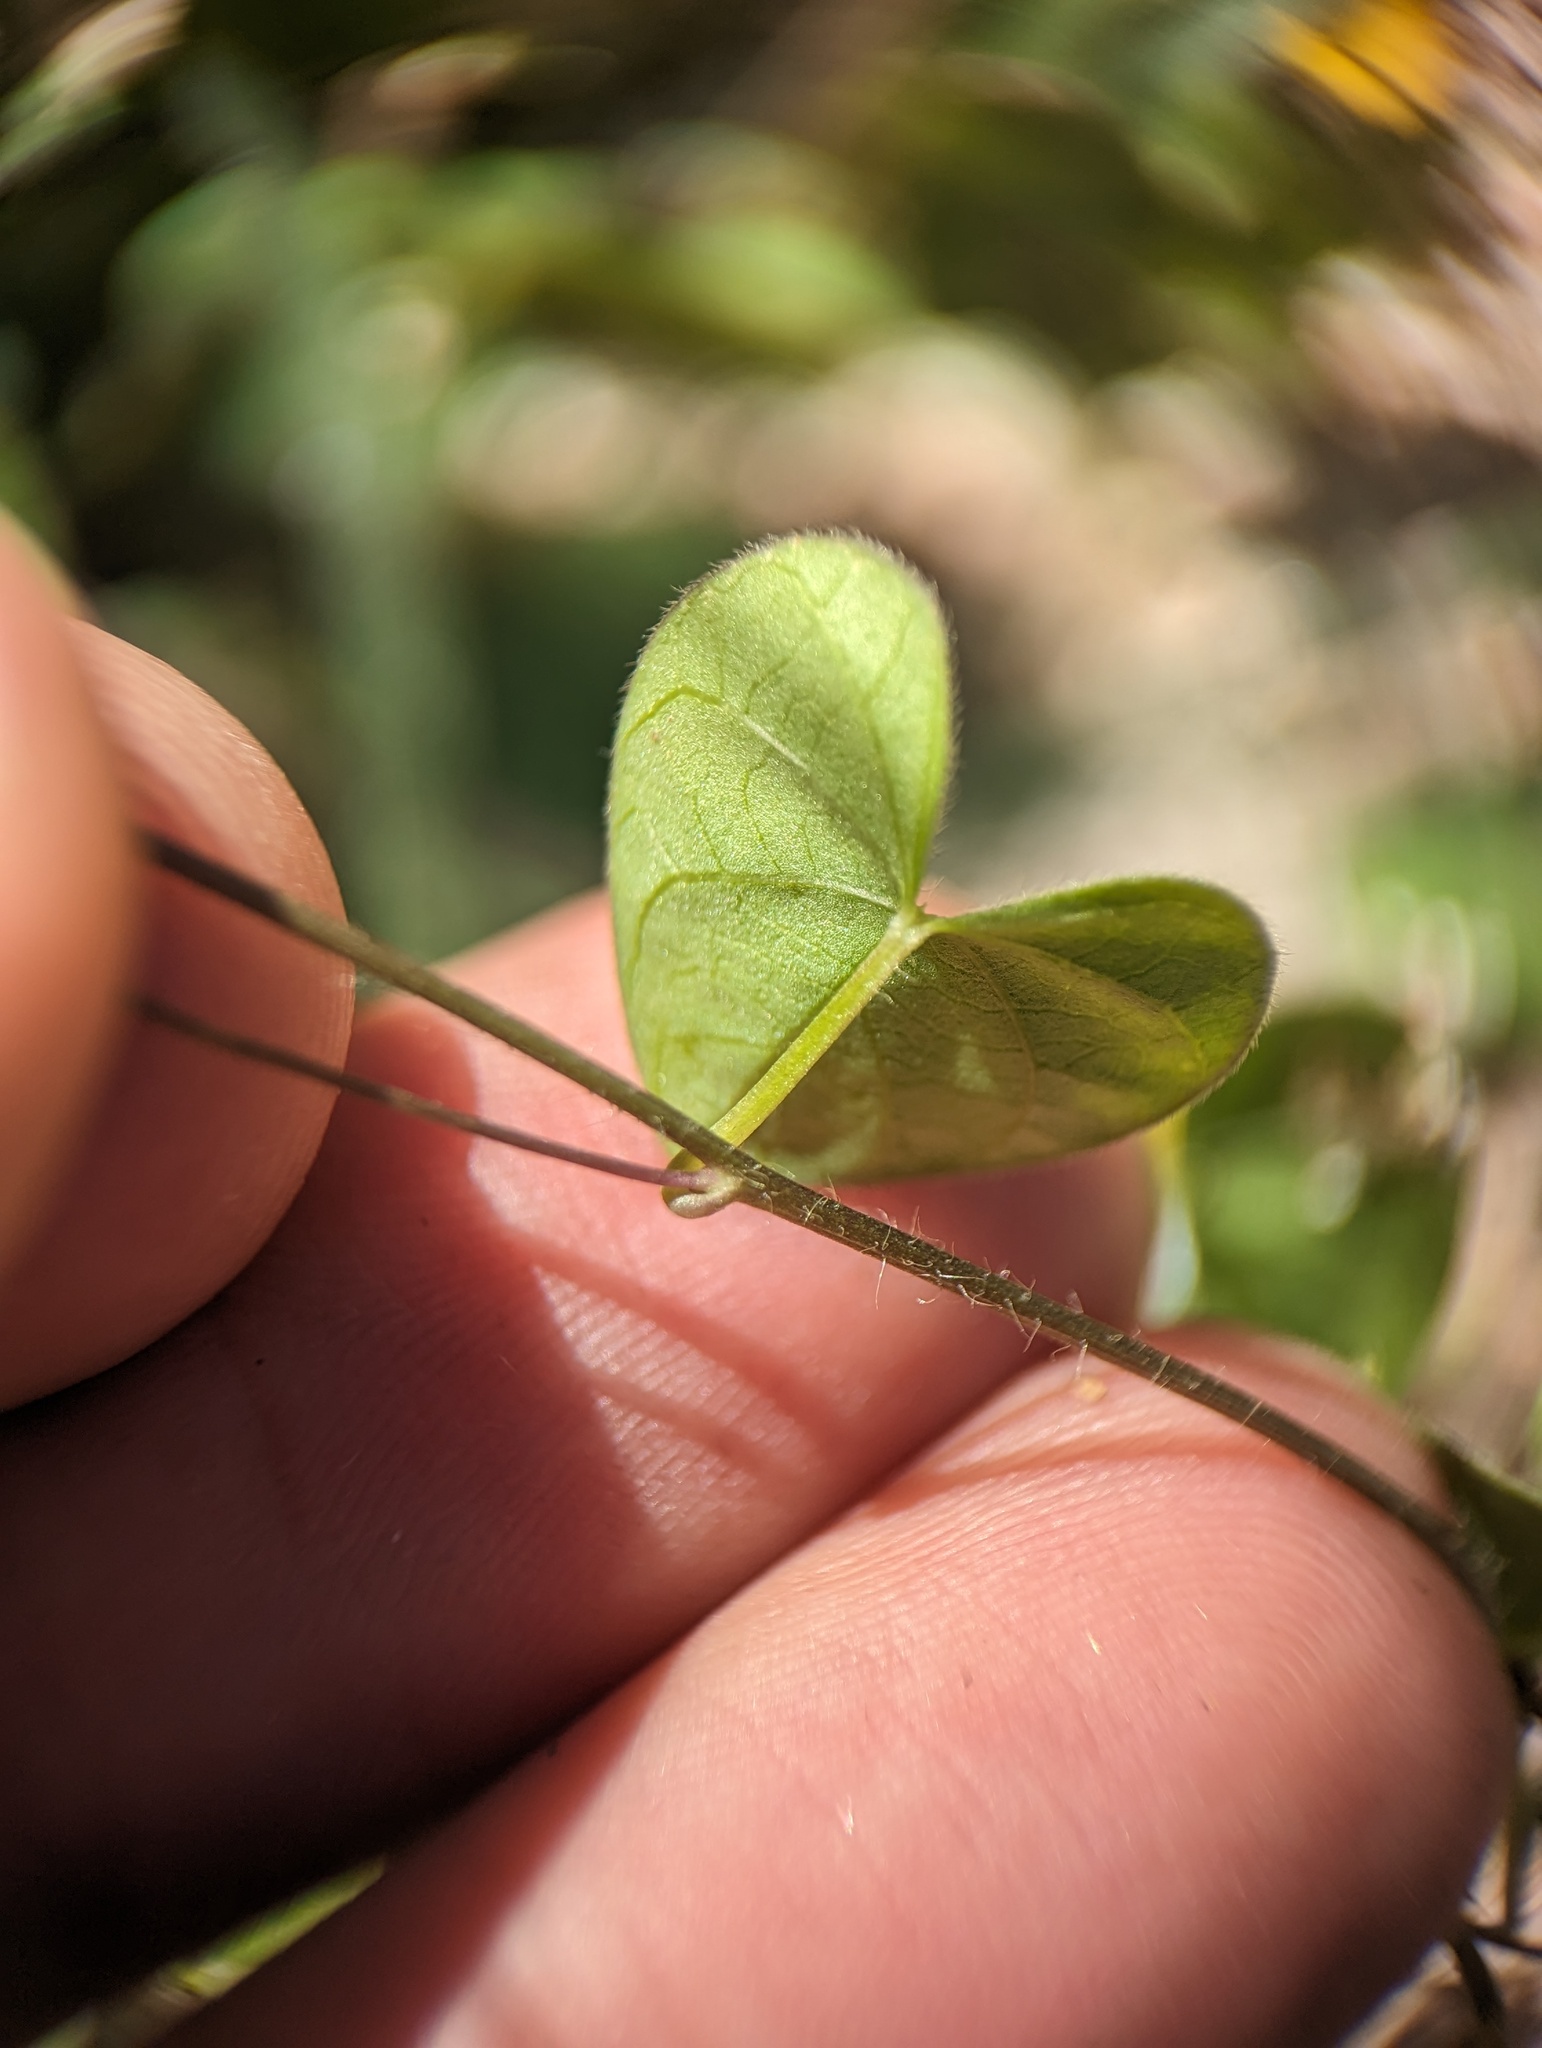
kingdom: Plantae
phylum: Tracheophyta
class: Magnoliopsida
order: Solanales
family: Convolvulaceae
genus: Ipomoea
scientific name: Ipomoea minutiflora
